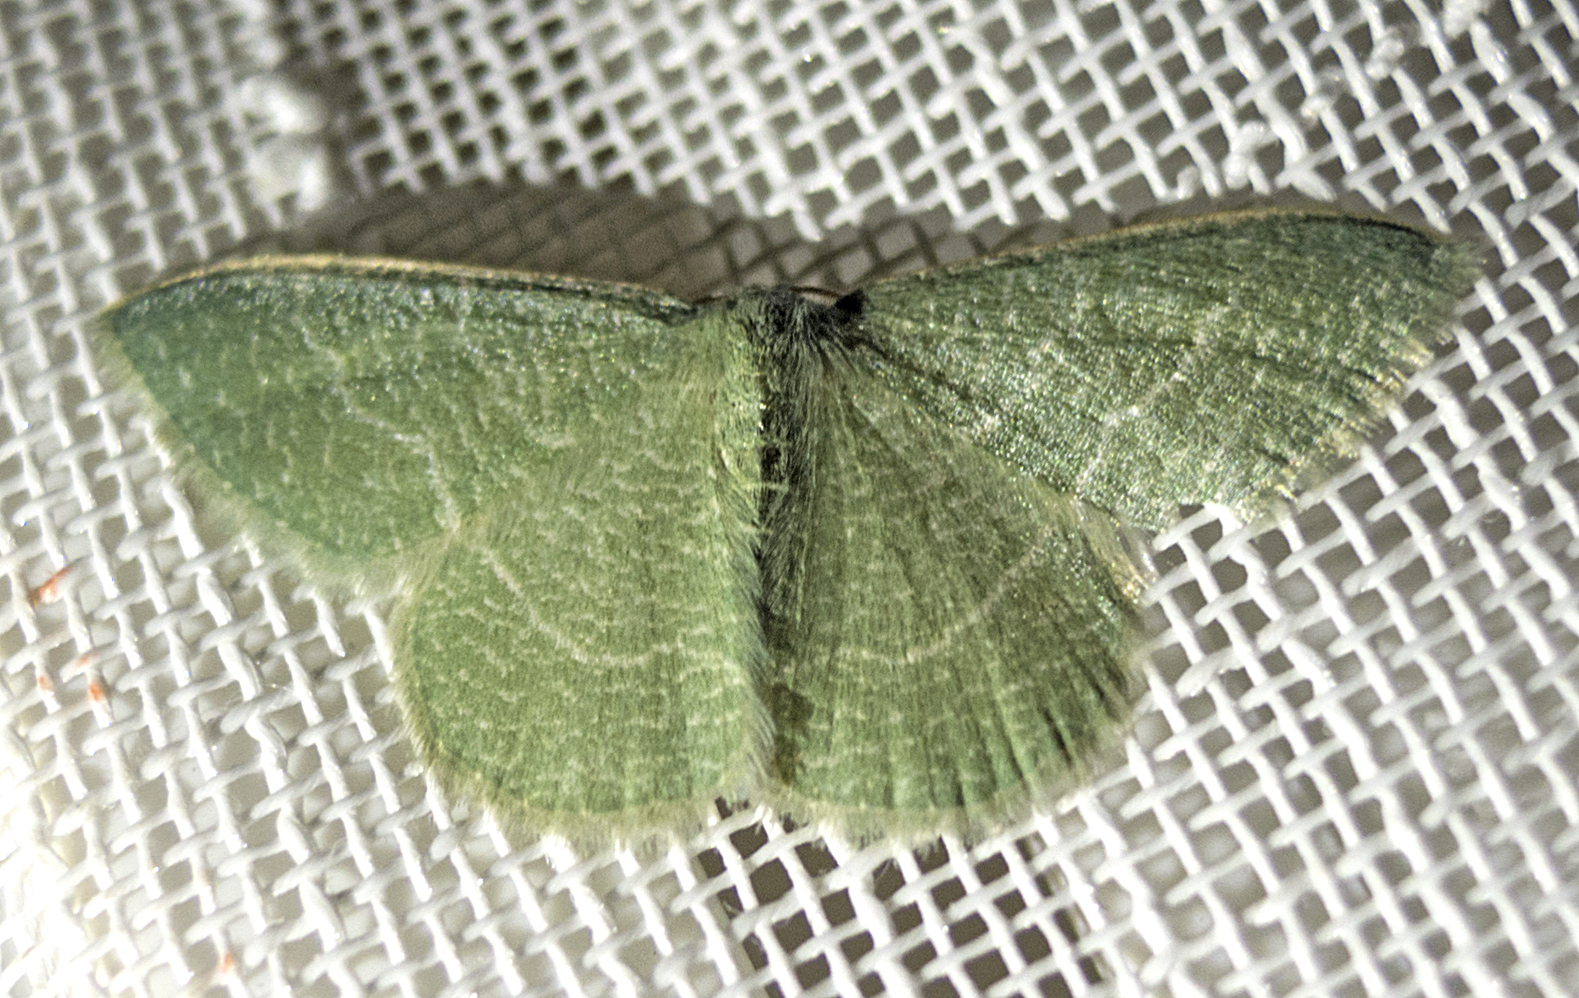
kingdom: Animalia
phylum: Arthropoda
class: Insecta
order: Lepidoptera
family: Geometridae
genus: Chlorissa
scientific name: Chlorissa etruscaria
